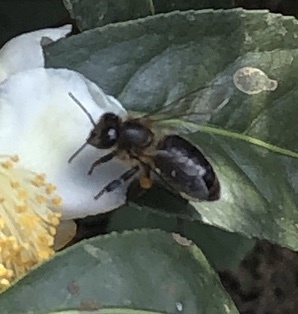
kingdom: Animalia
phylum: Arthropoda
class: Insecta
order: Hymenoptera
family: Apidae
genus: Apis
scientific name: Apis
